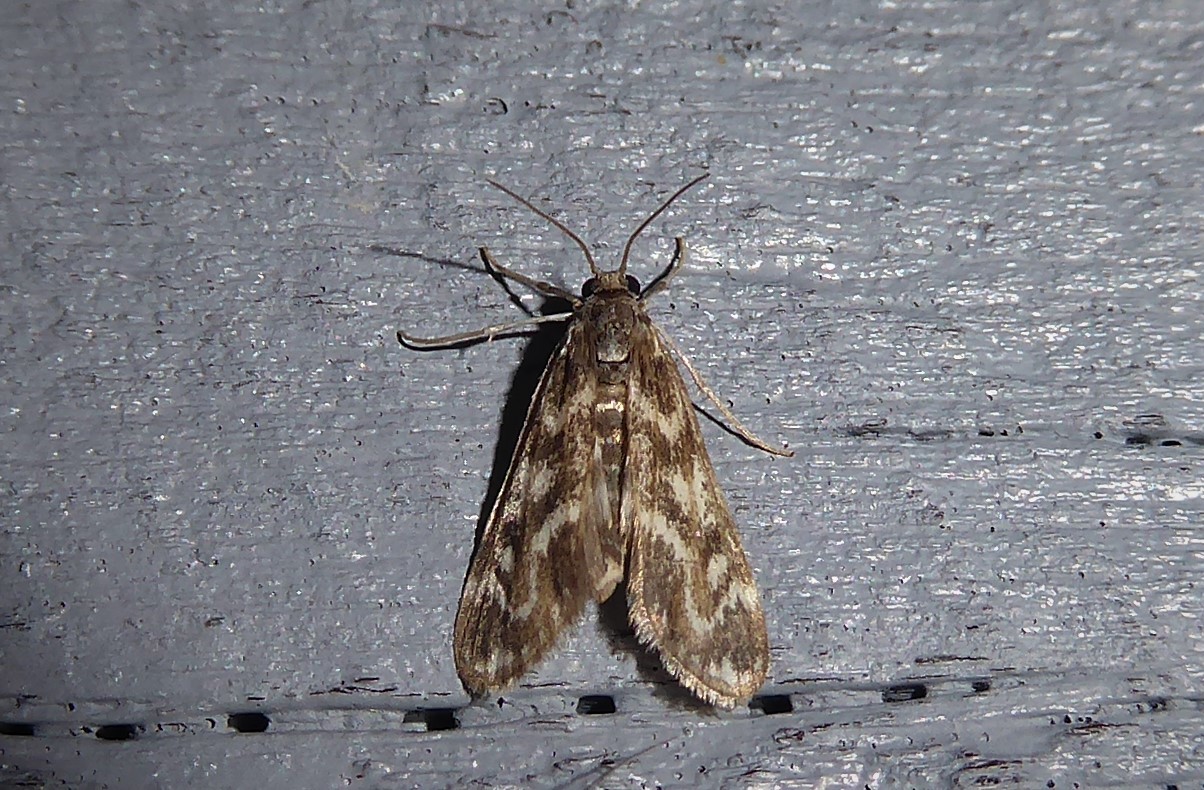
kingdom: Animalia
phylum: Arthropoda
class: Insecta
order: Lepidoptera
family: Crambidae
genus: Hygraula
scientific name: Hygraula nitens
